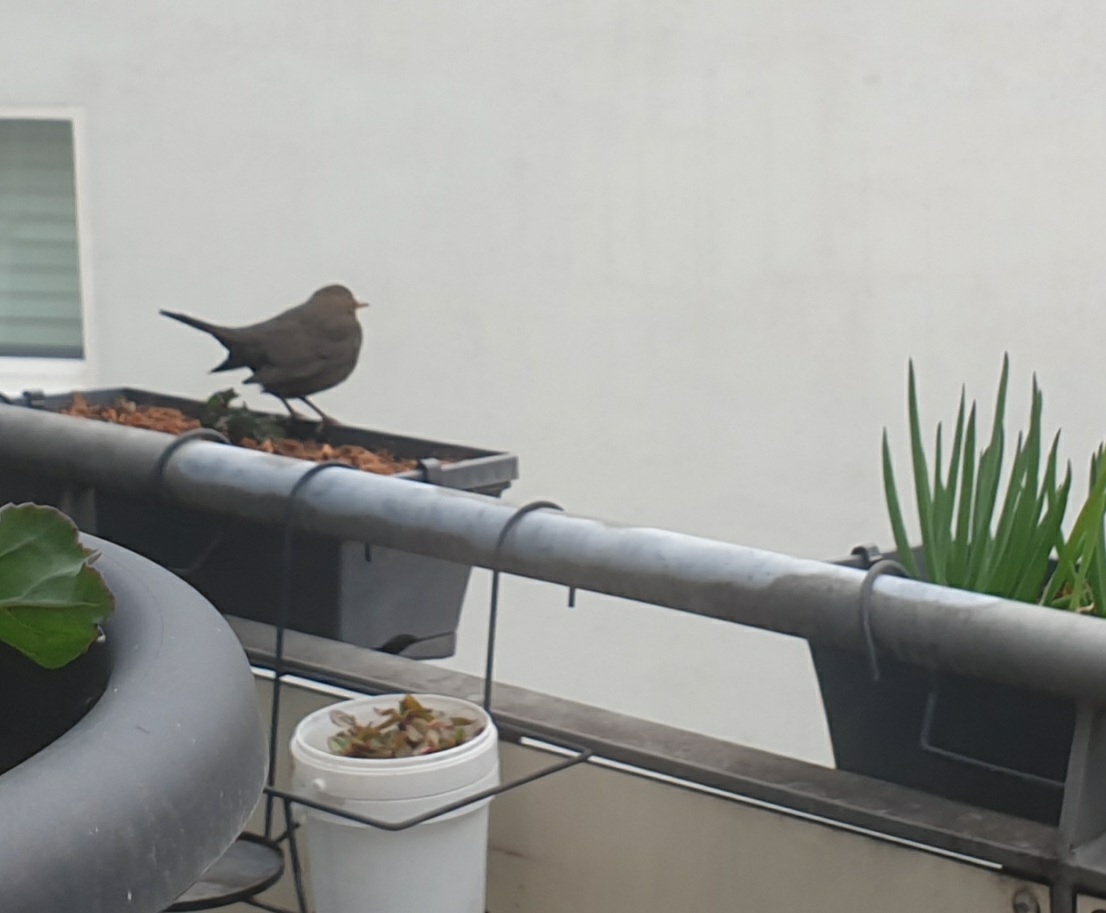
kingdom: Animalia
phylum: Chordata
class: Aves
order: Passeriformes
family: Turdidae
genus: Turdus
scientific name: Turdus merula
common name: Common blackbird
